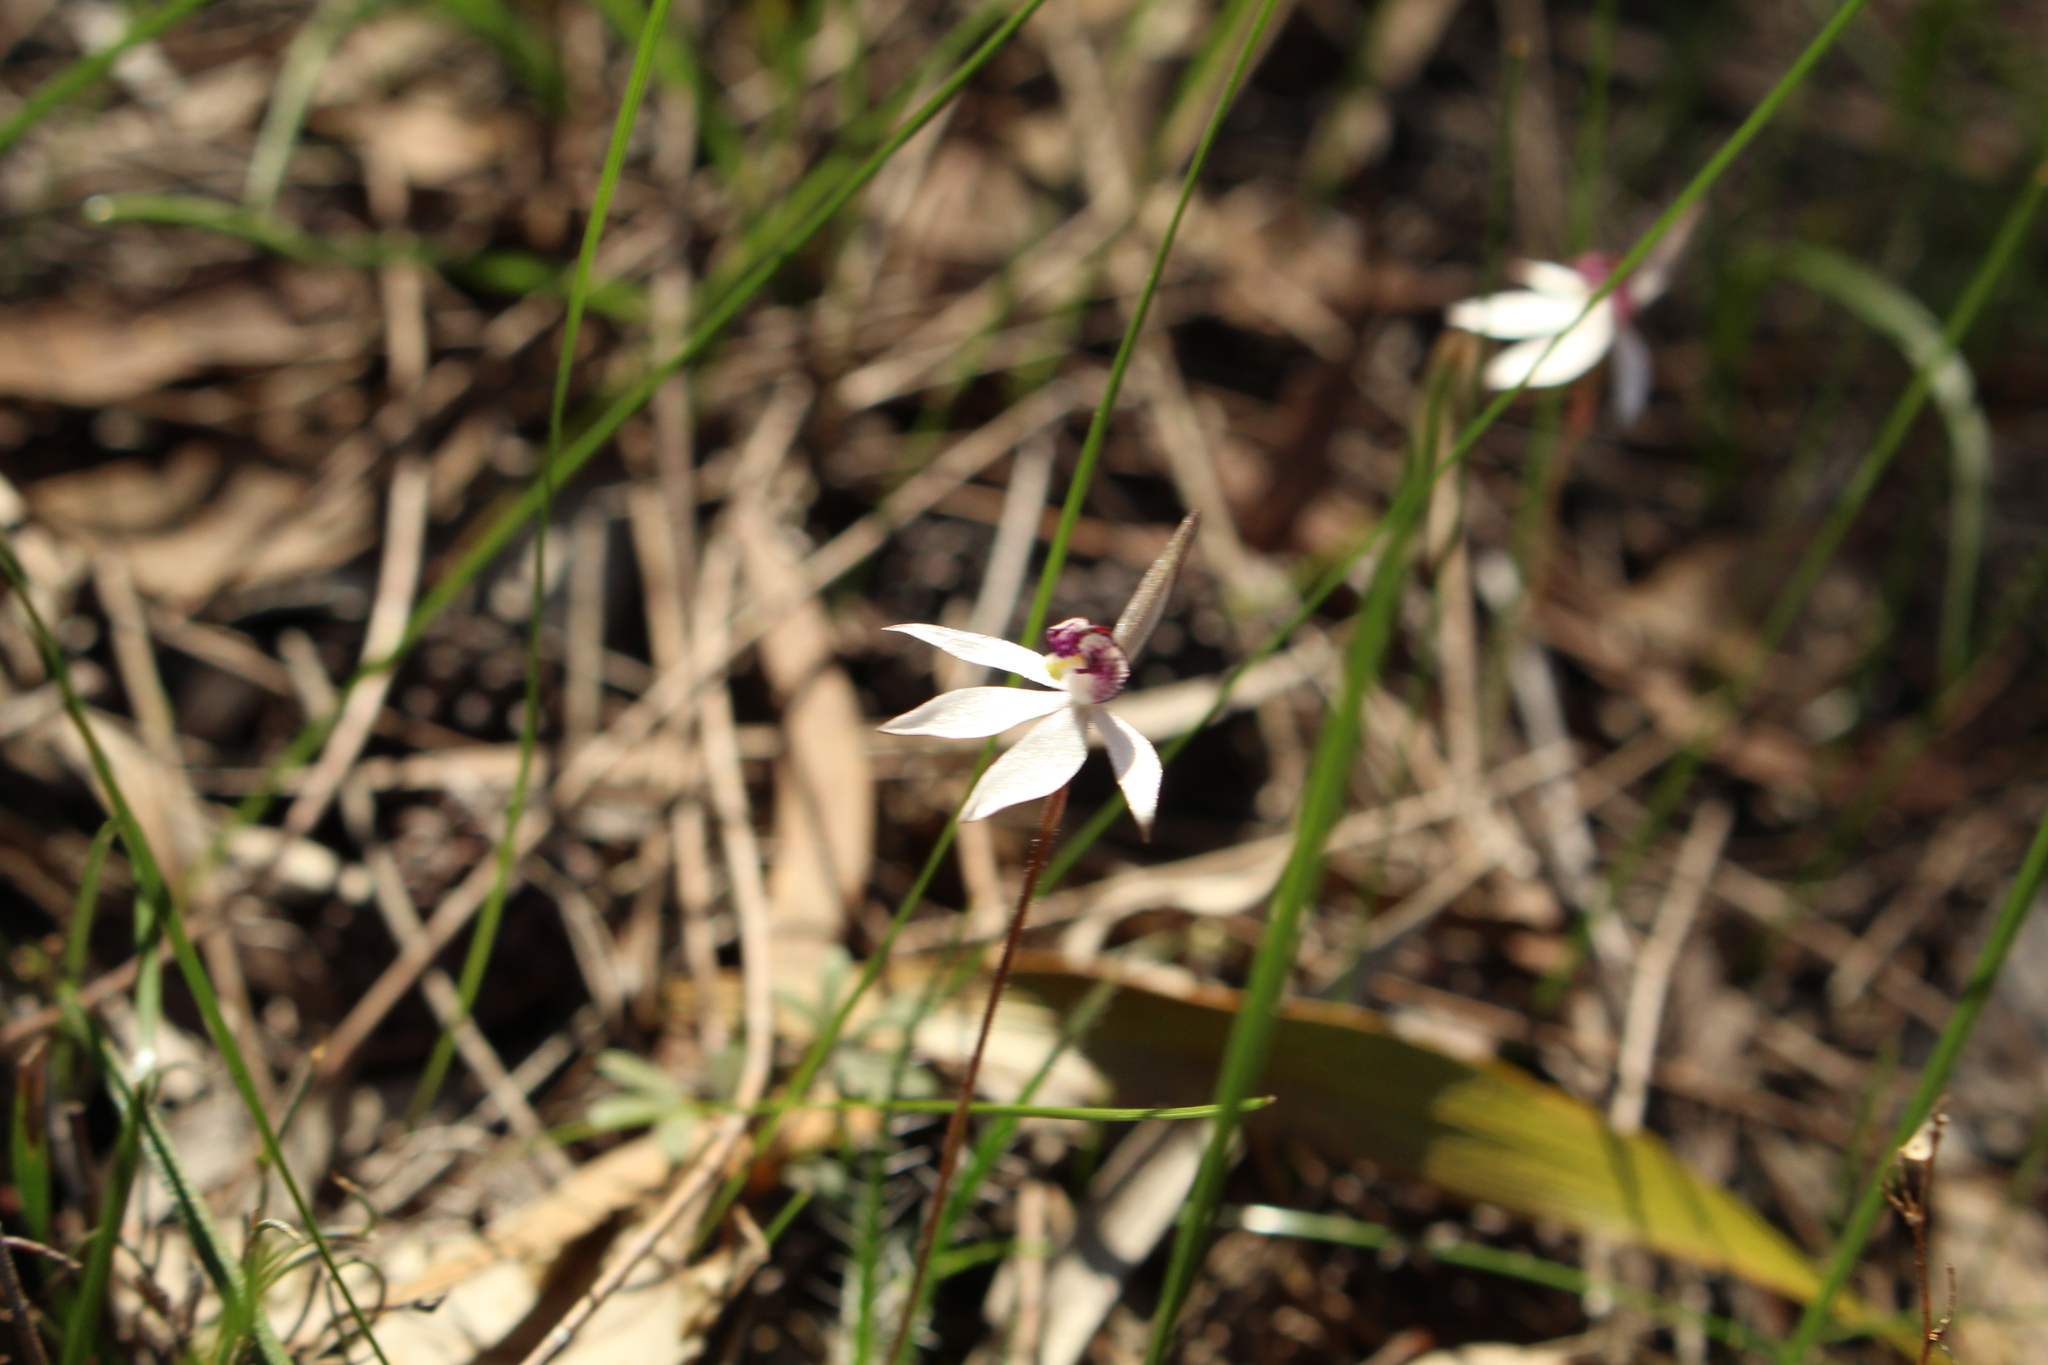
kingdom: Plantae
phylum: Tracheophyta
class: Liliopsida
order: Asparagales
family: Orchidaceae
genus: Caladenia
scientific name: Caladenia saccharata
